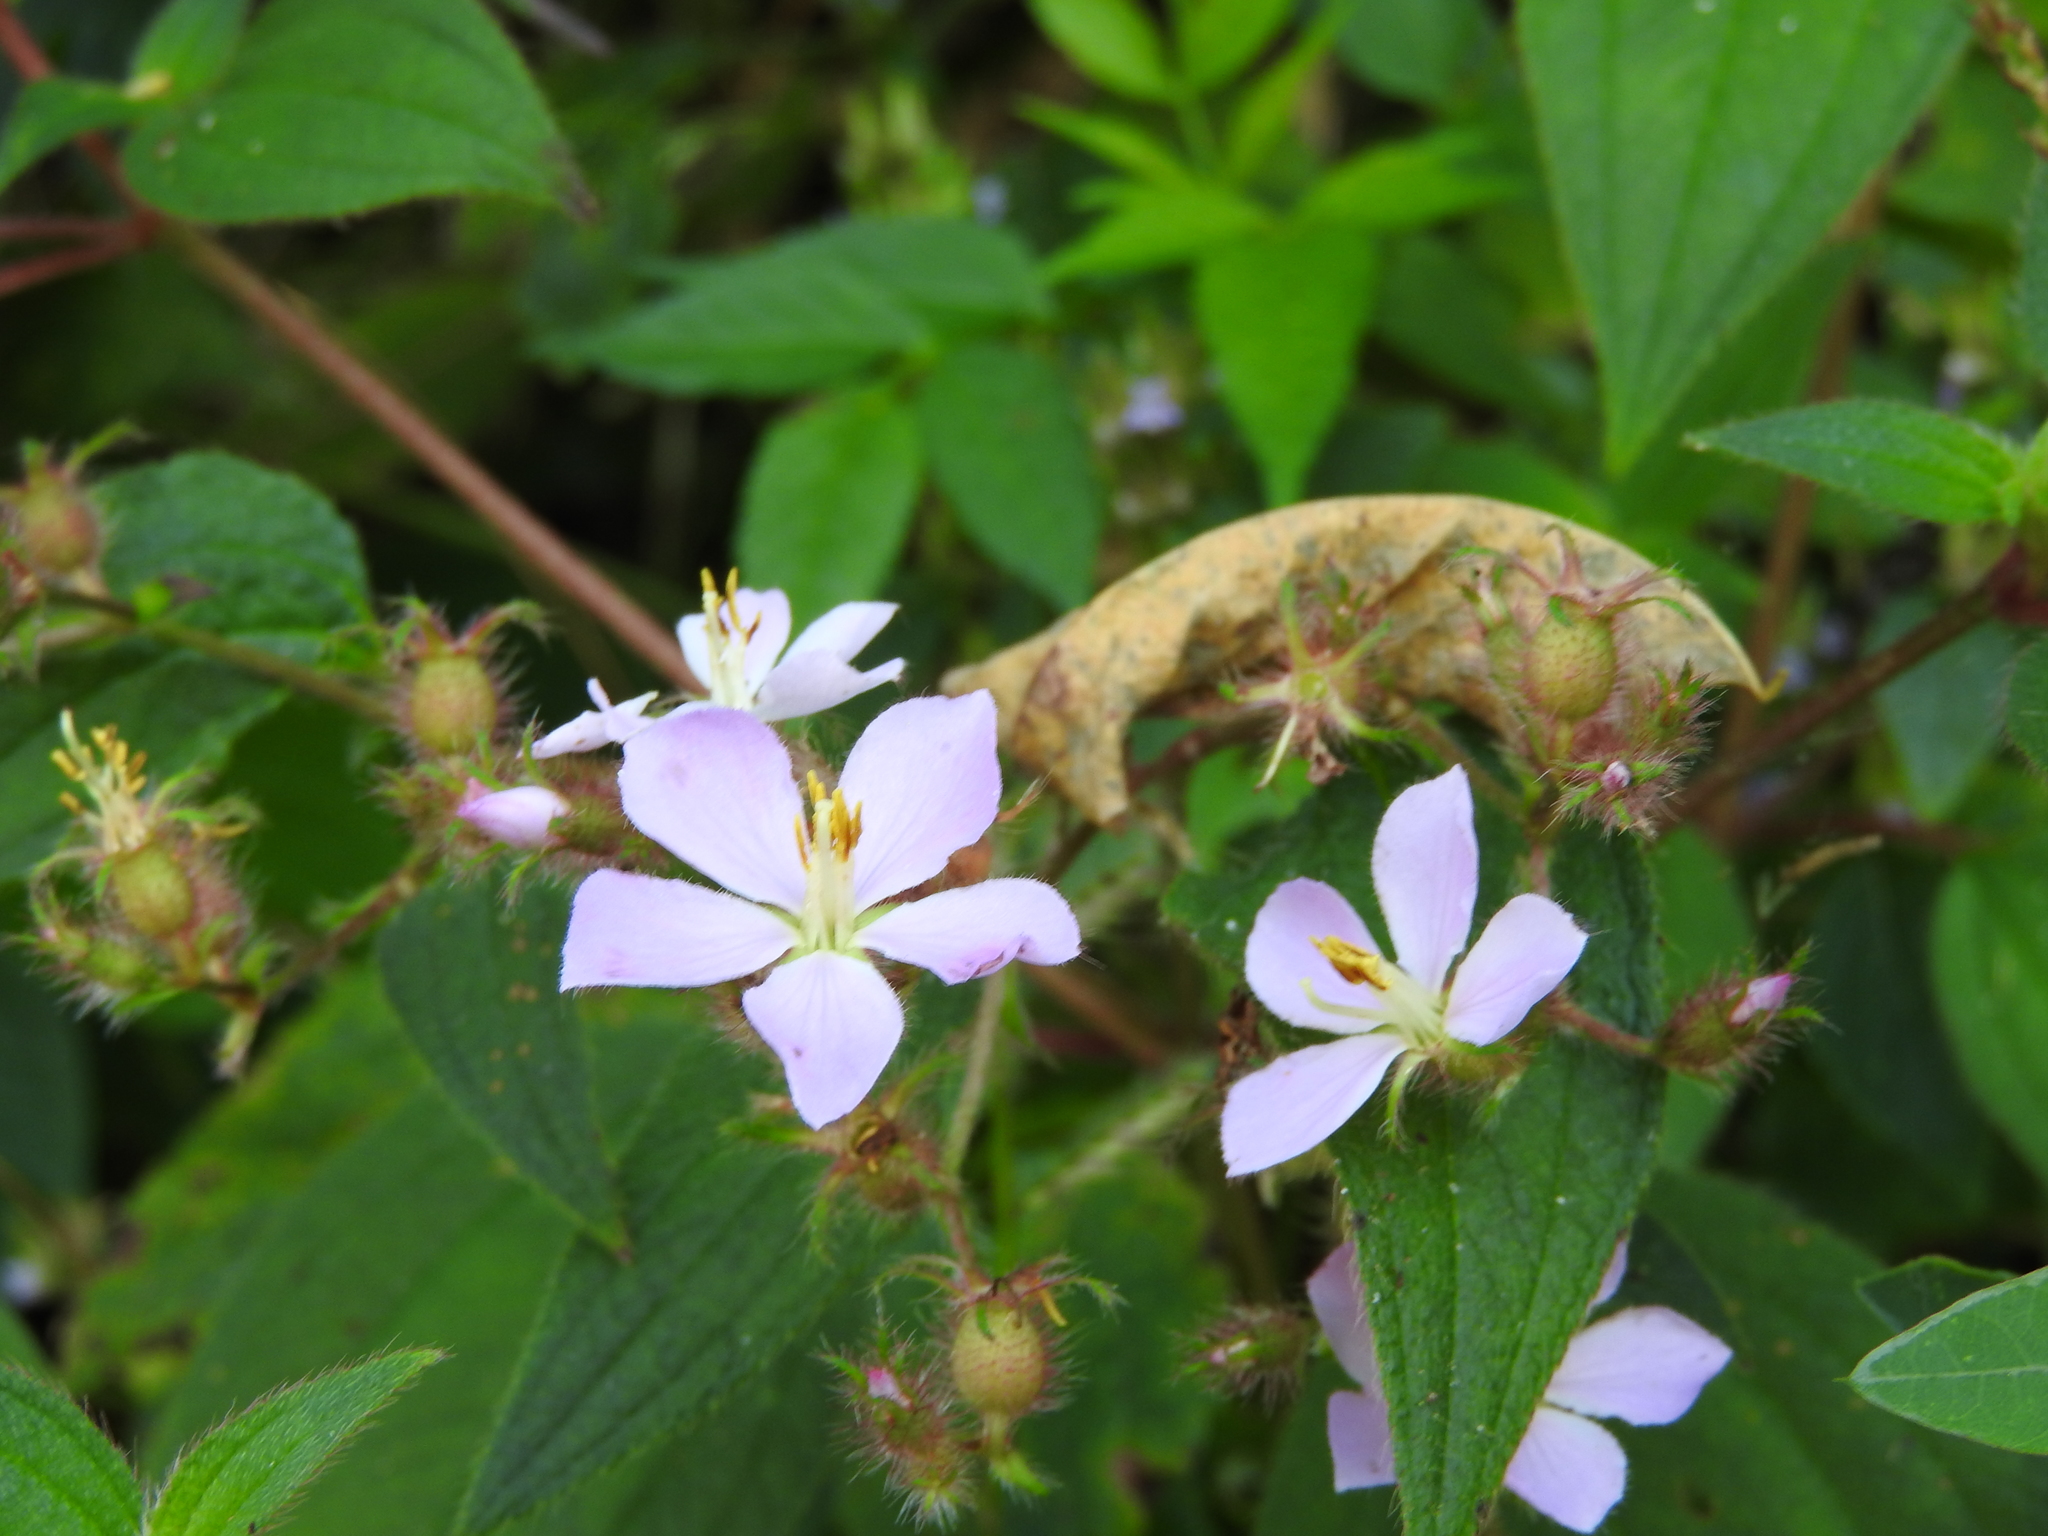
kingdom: Plantae
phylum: Tracheophyta
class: Magnoliopsida
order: Myrtales
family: Melastomataceae
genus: Chaetogastra
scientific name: Chaetogastra naudiniana
